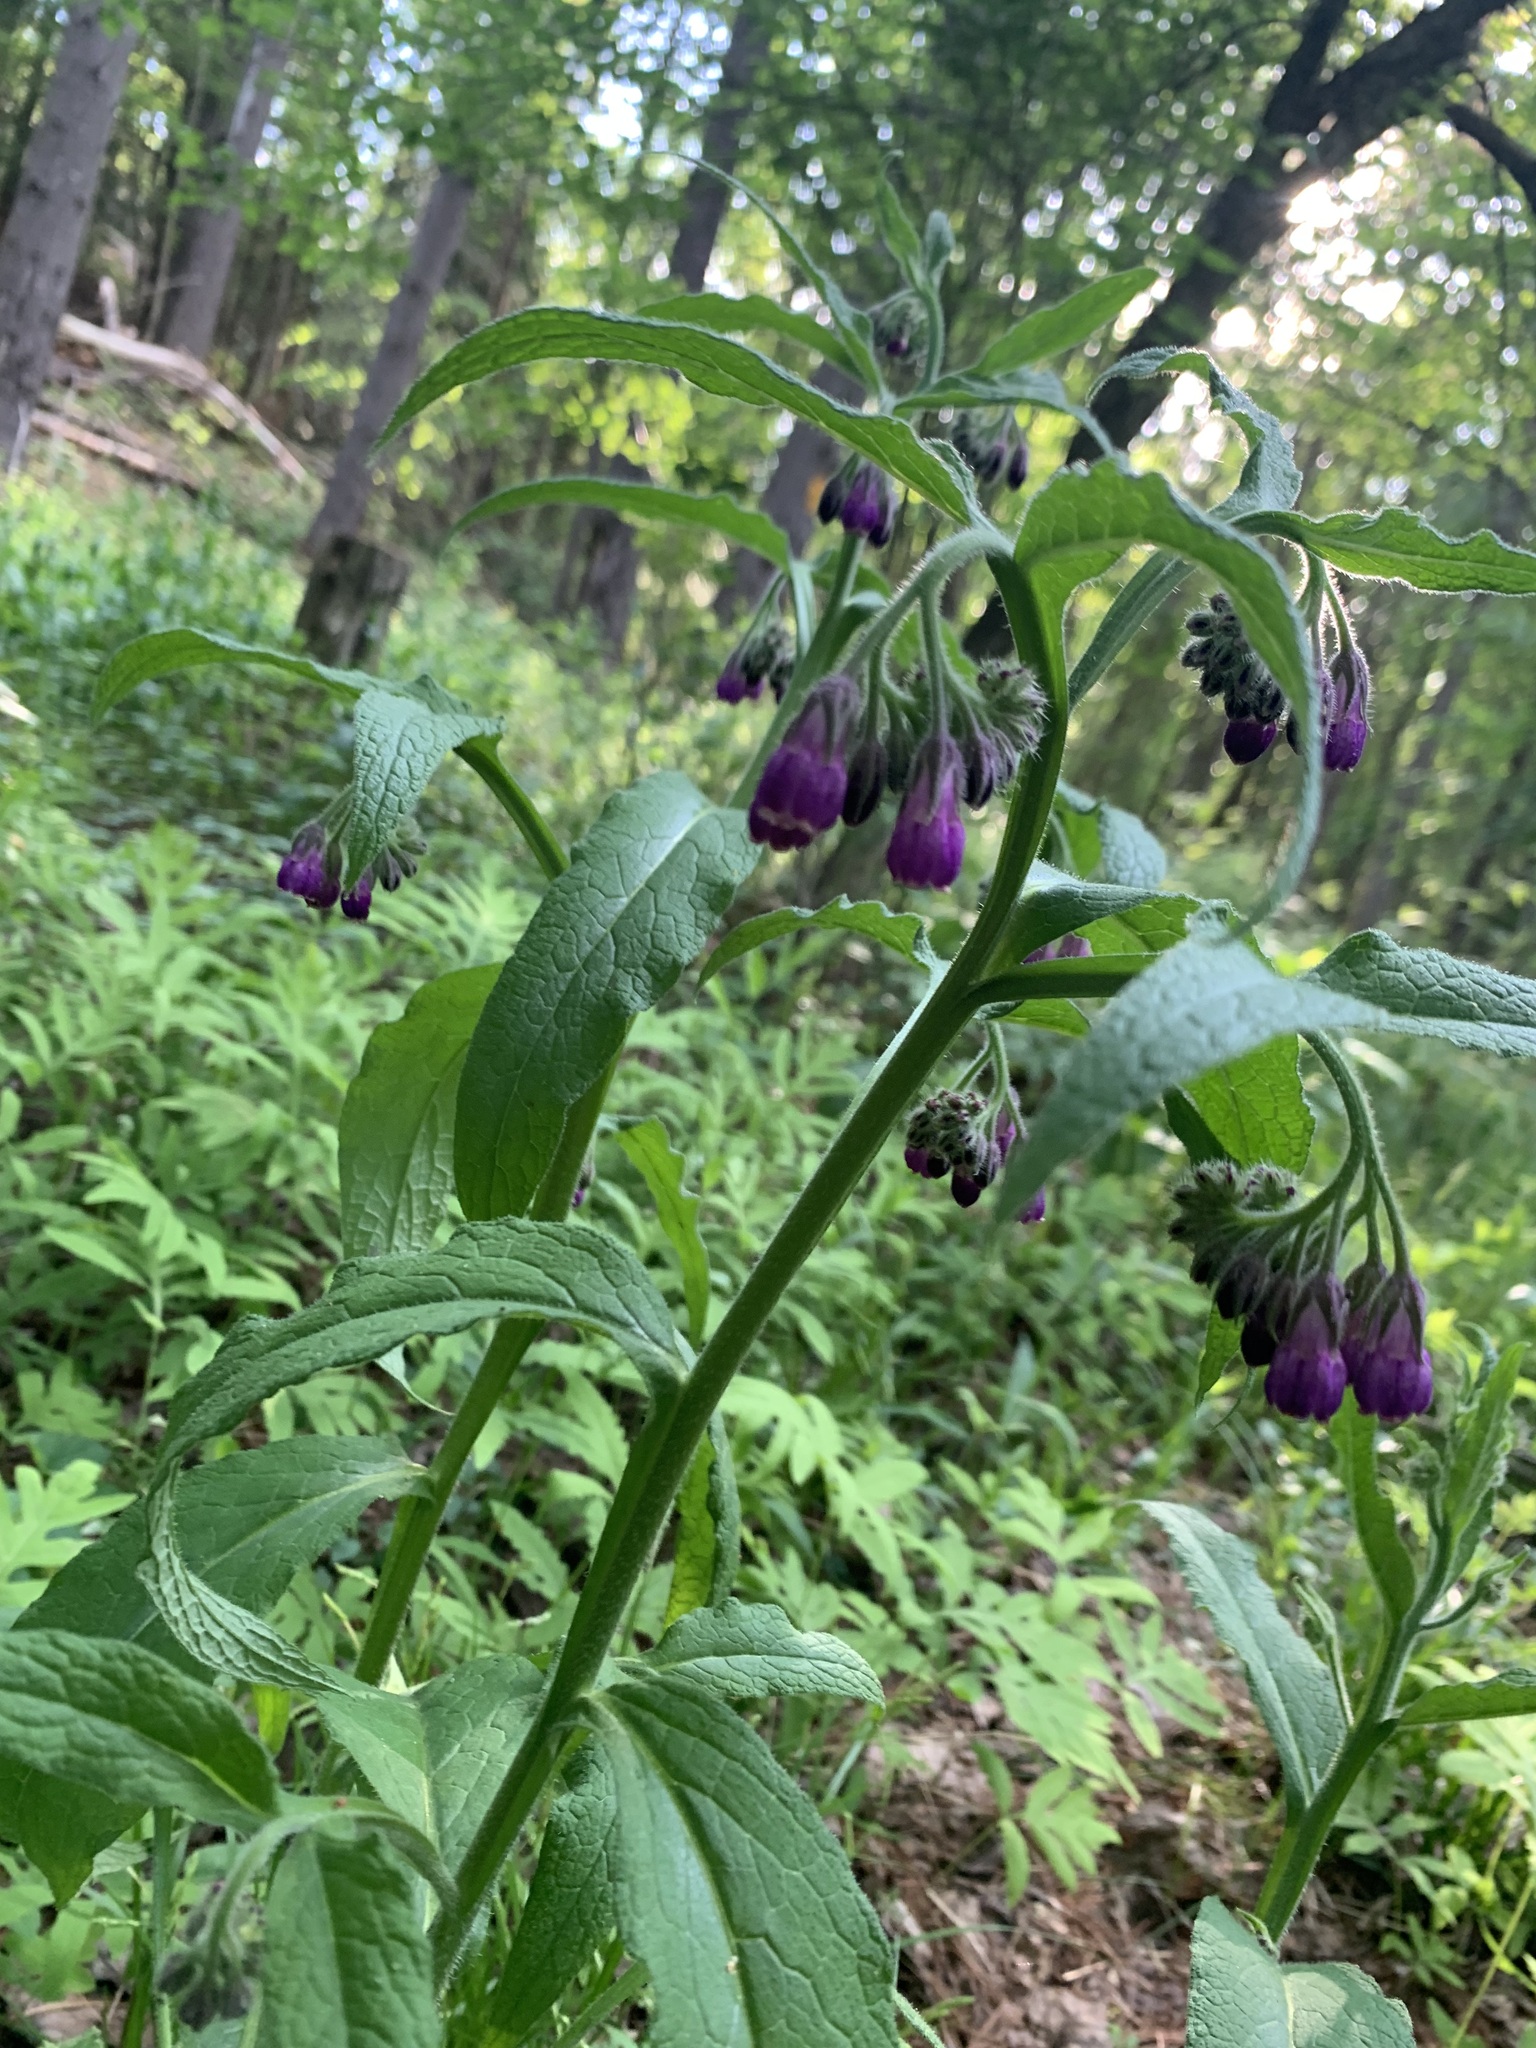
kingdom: Plantae
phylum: Tracheophyta
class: Magnoliopsida
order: Boraginales
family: Boraginaceae
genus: Symphytum
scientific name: Symphytum officinale
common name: Common comfrey
